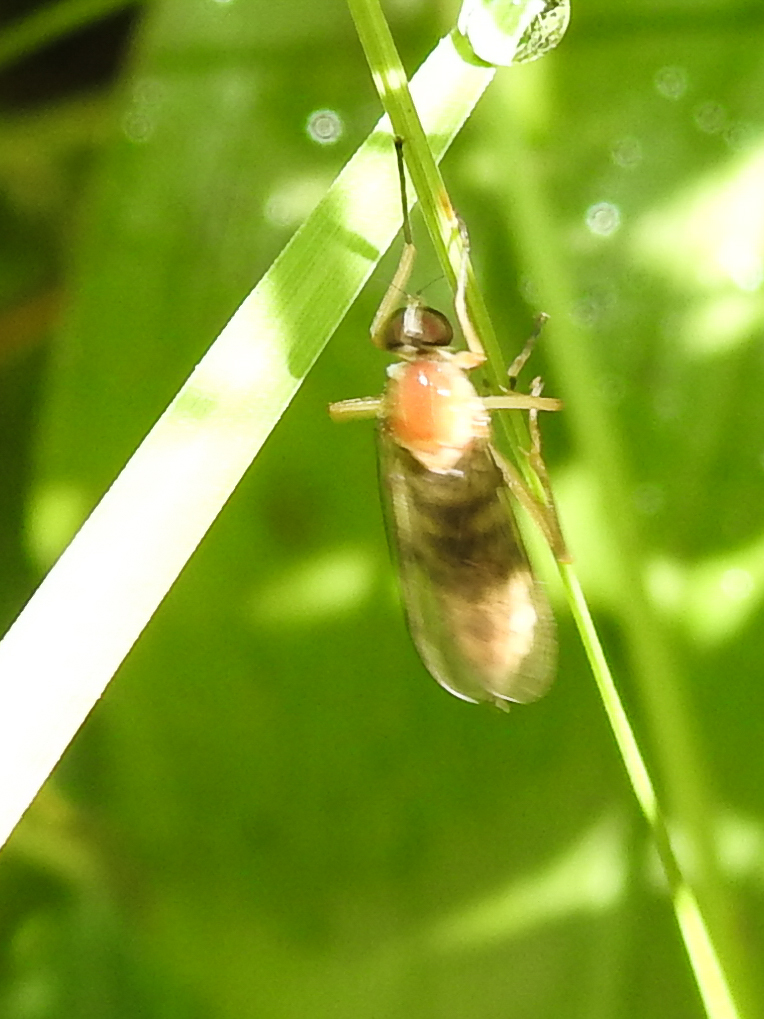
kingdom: Animalia
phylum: Arthropoda
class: Insecta
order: Diptera
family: Xylophagidae
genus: Dialysis
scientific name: Dialysis elongata
